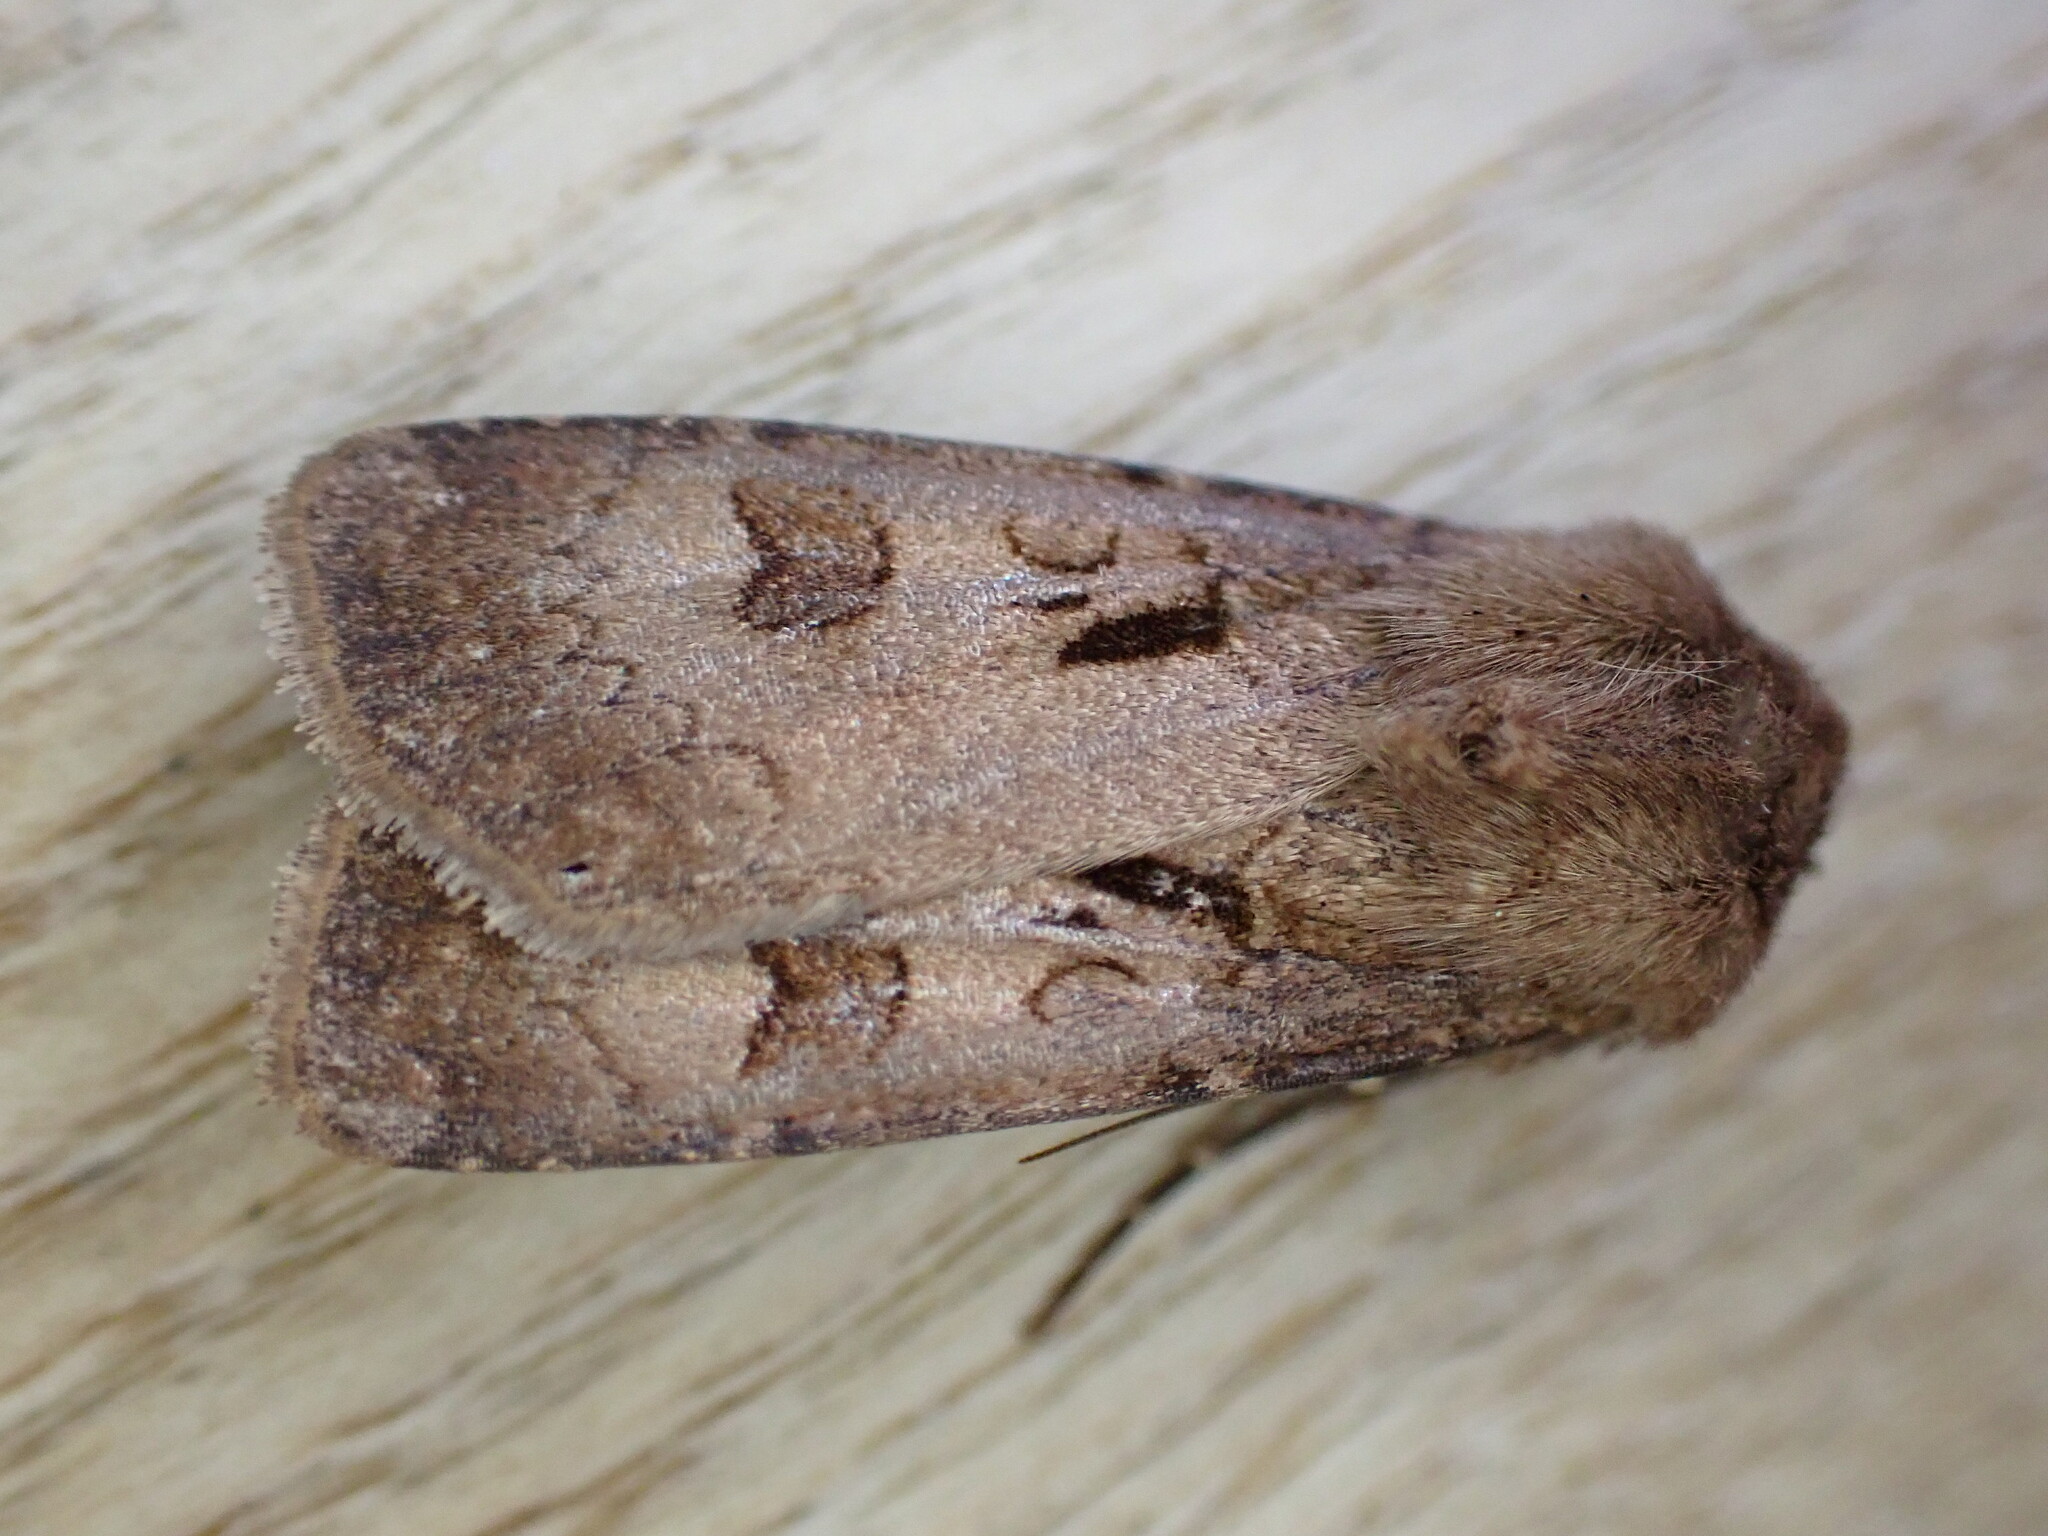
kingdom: Animalia
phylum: Arthropoda
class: Insecta
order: Lepidoptera
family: Noctuidae
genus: Agrotis
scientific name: Agrotis exclamationis
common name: Heart and dart
